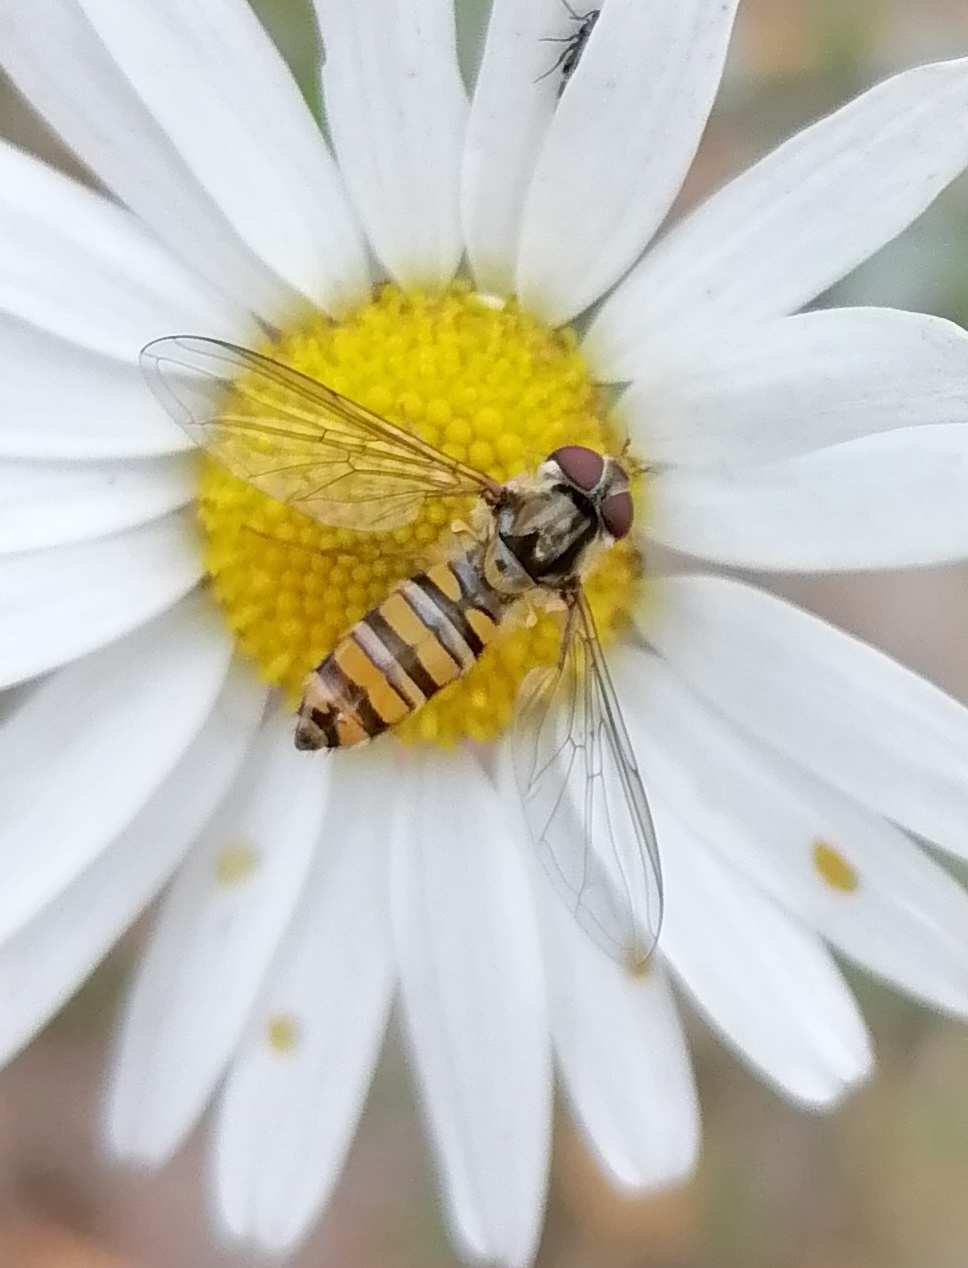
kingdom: Animalia
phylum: Arthropoda
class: Insecta
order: Diptera
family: Syrphidae
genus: Episyrphus
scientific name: Episyrphus balteatus
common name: Marmalade hoverfly
